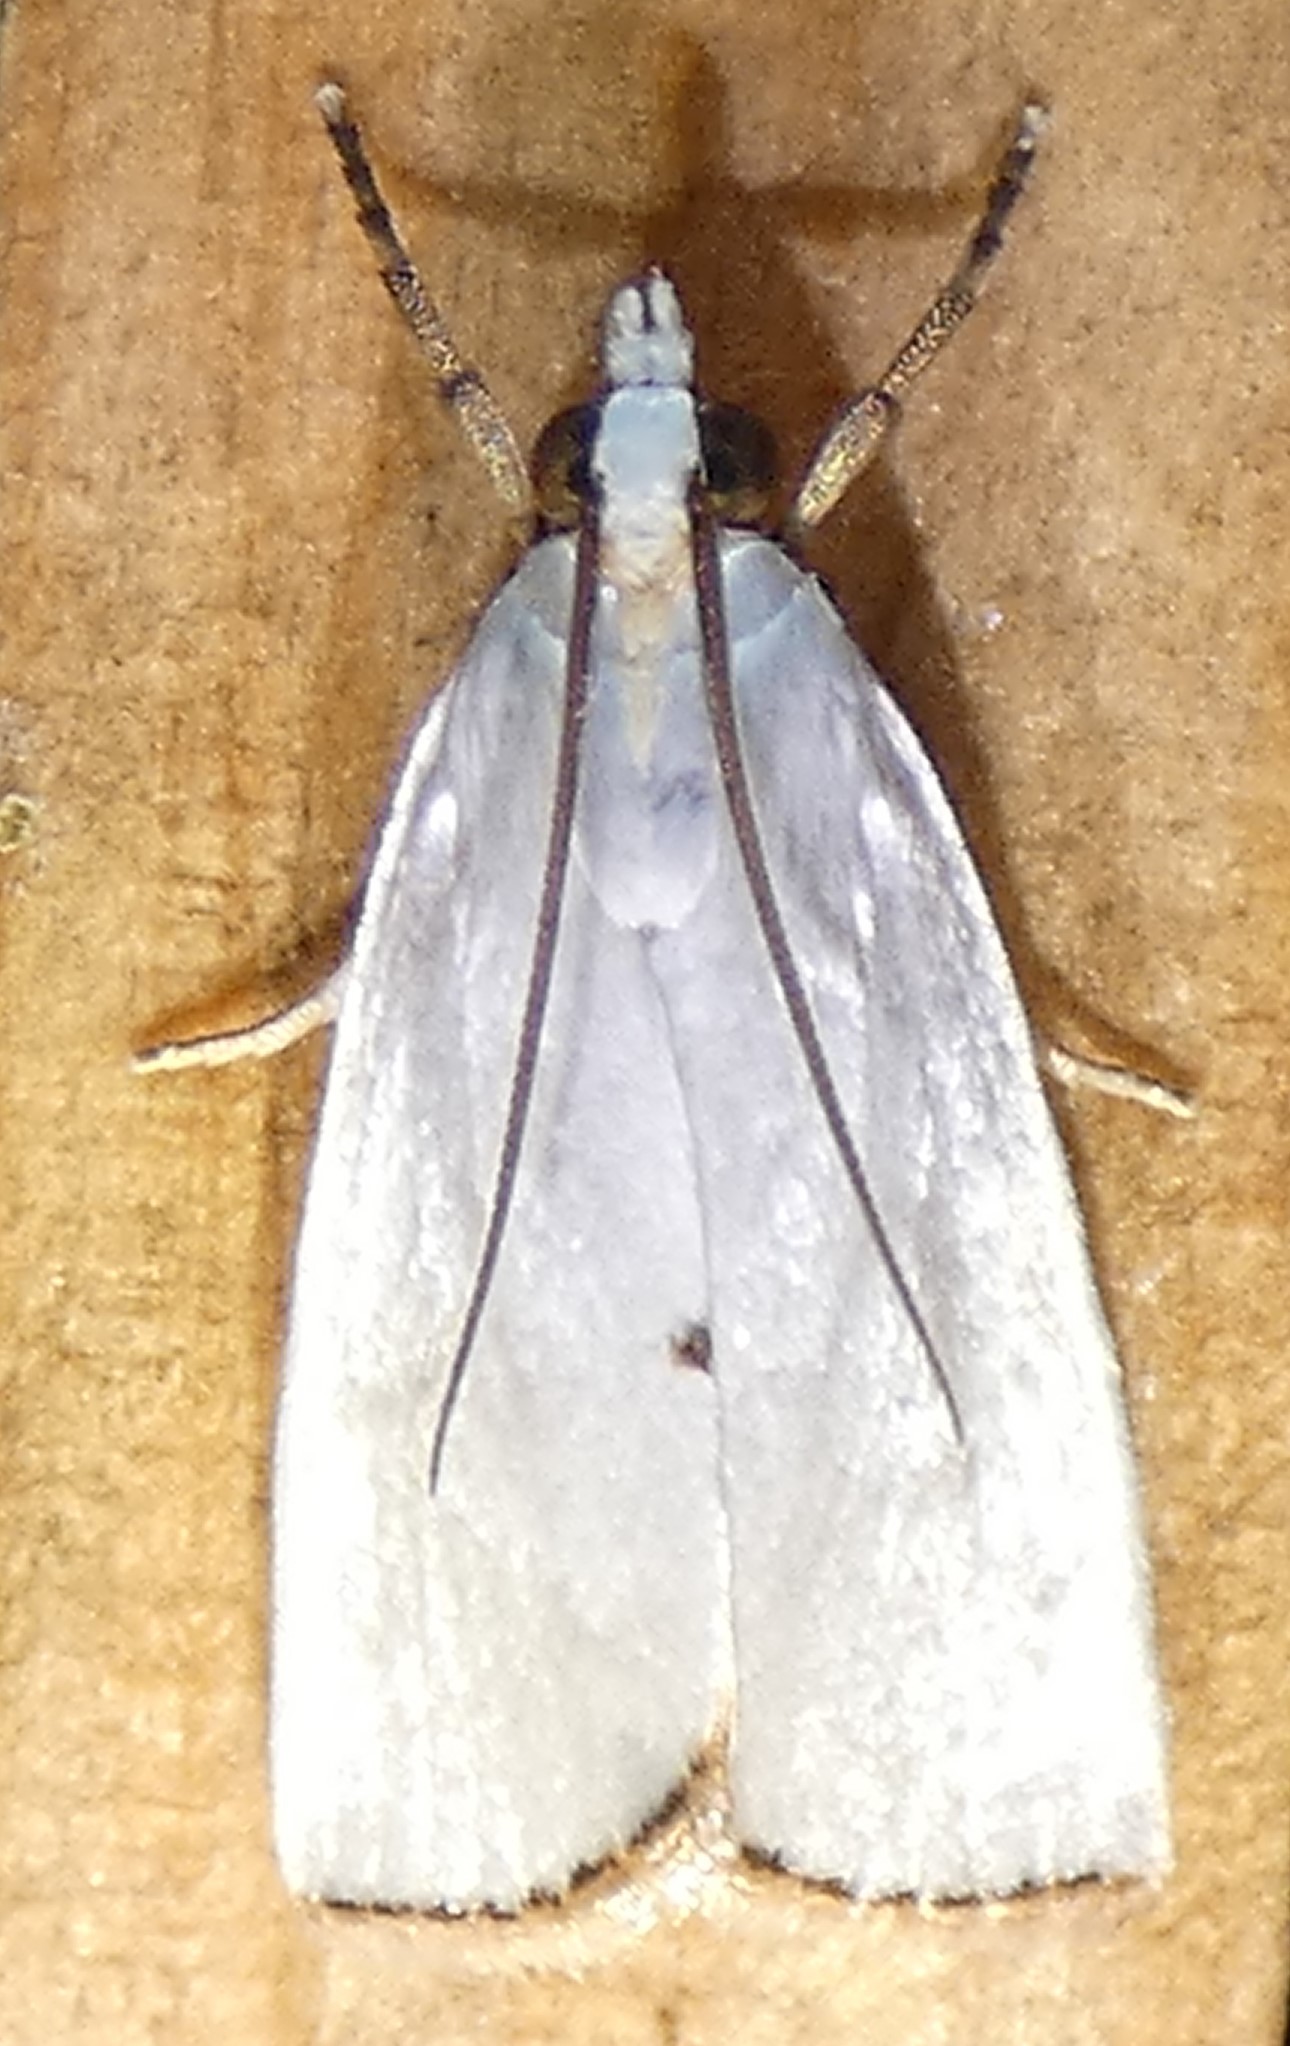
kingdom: Animalia
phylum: Arthropoda
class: Insecta
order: Lepidoptera
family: Crambidae
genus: Argyria
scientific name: Argyria nivalis
